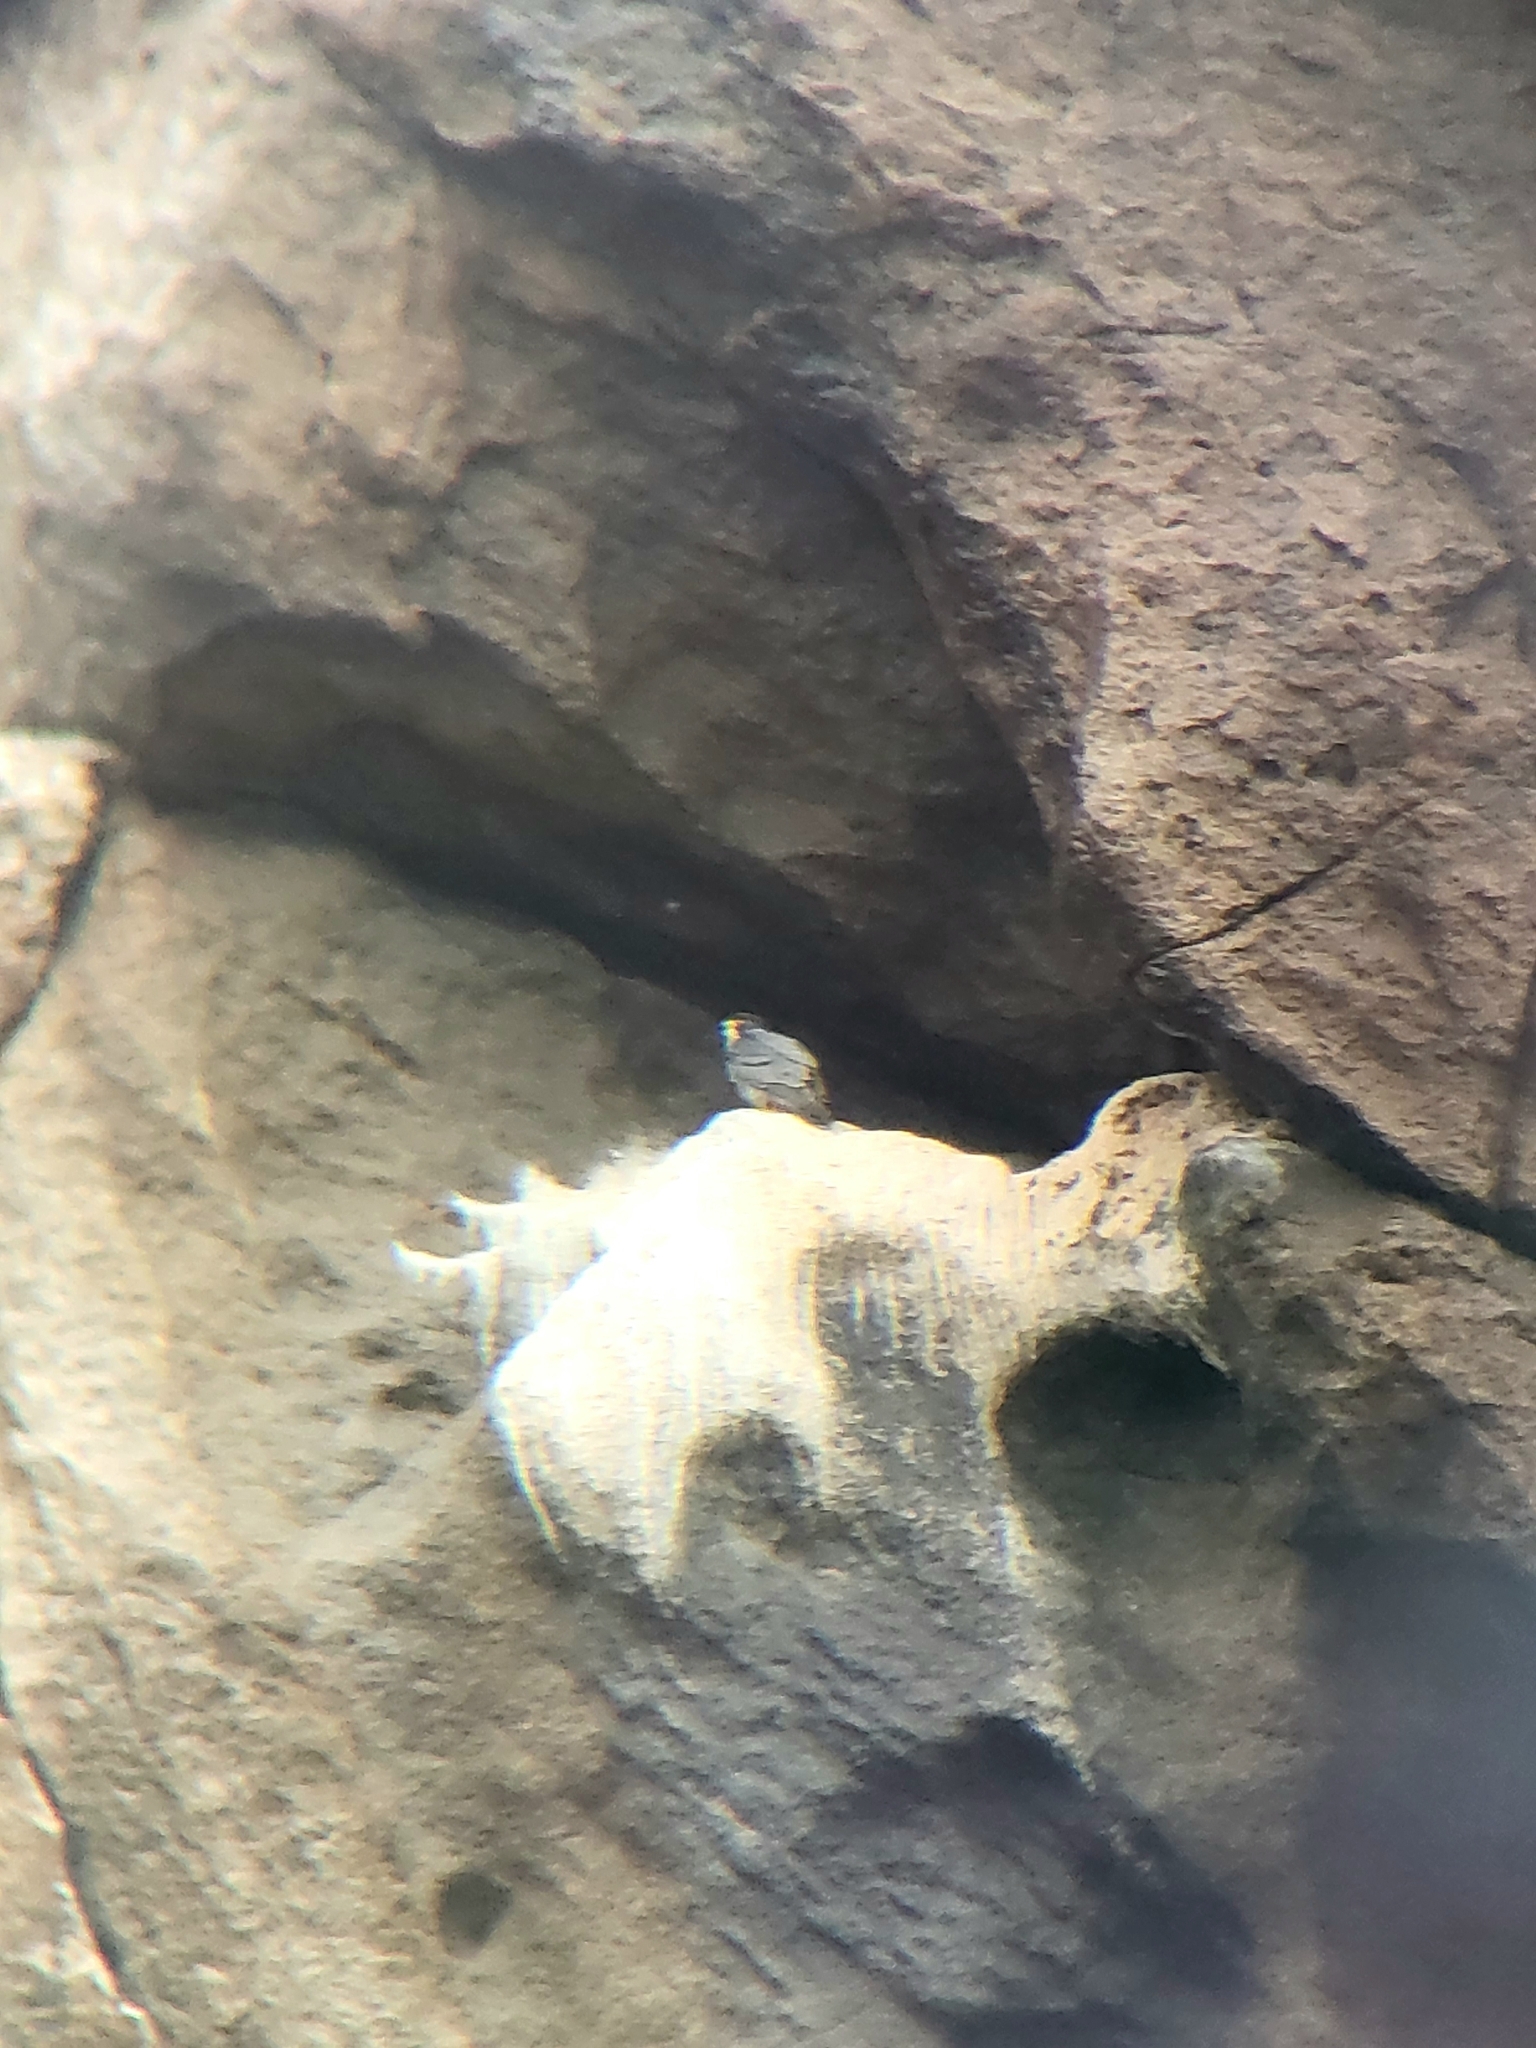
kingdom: Animalia
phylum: Chordata
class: Aves
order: Falconiformes
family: Falconidae
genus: Falco
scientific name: Falco peregrinus
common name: Peregrine falcon
